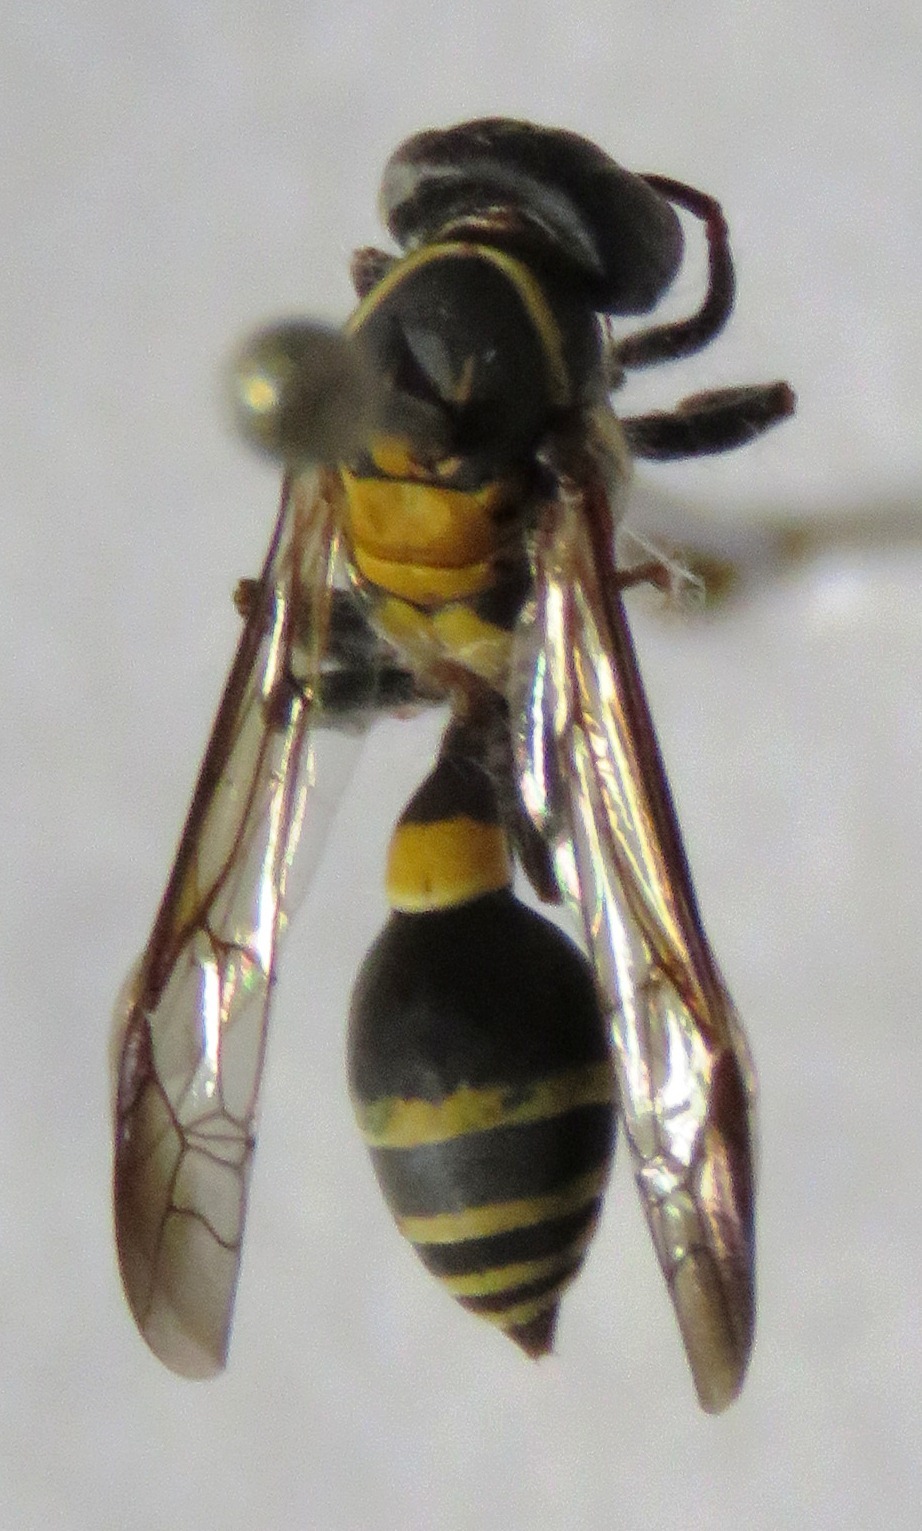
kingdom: Animalia
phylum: Arthropoda
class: Insecta
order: Hymenoptera
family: Eumenidae
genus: Polybia
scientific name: Polybia occidentalis
